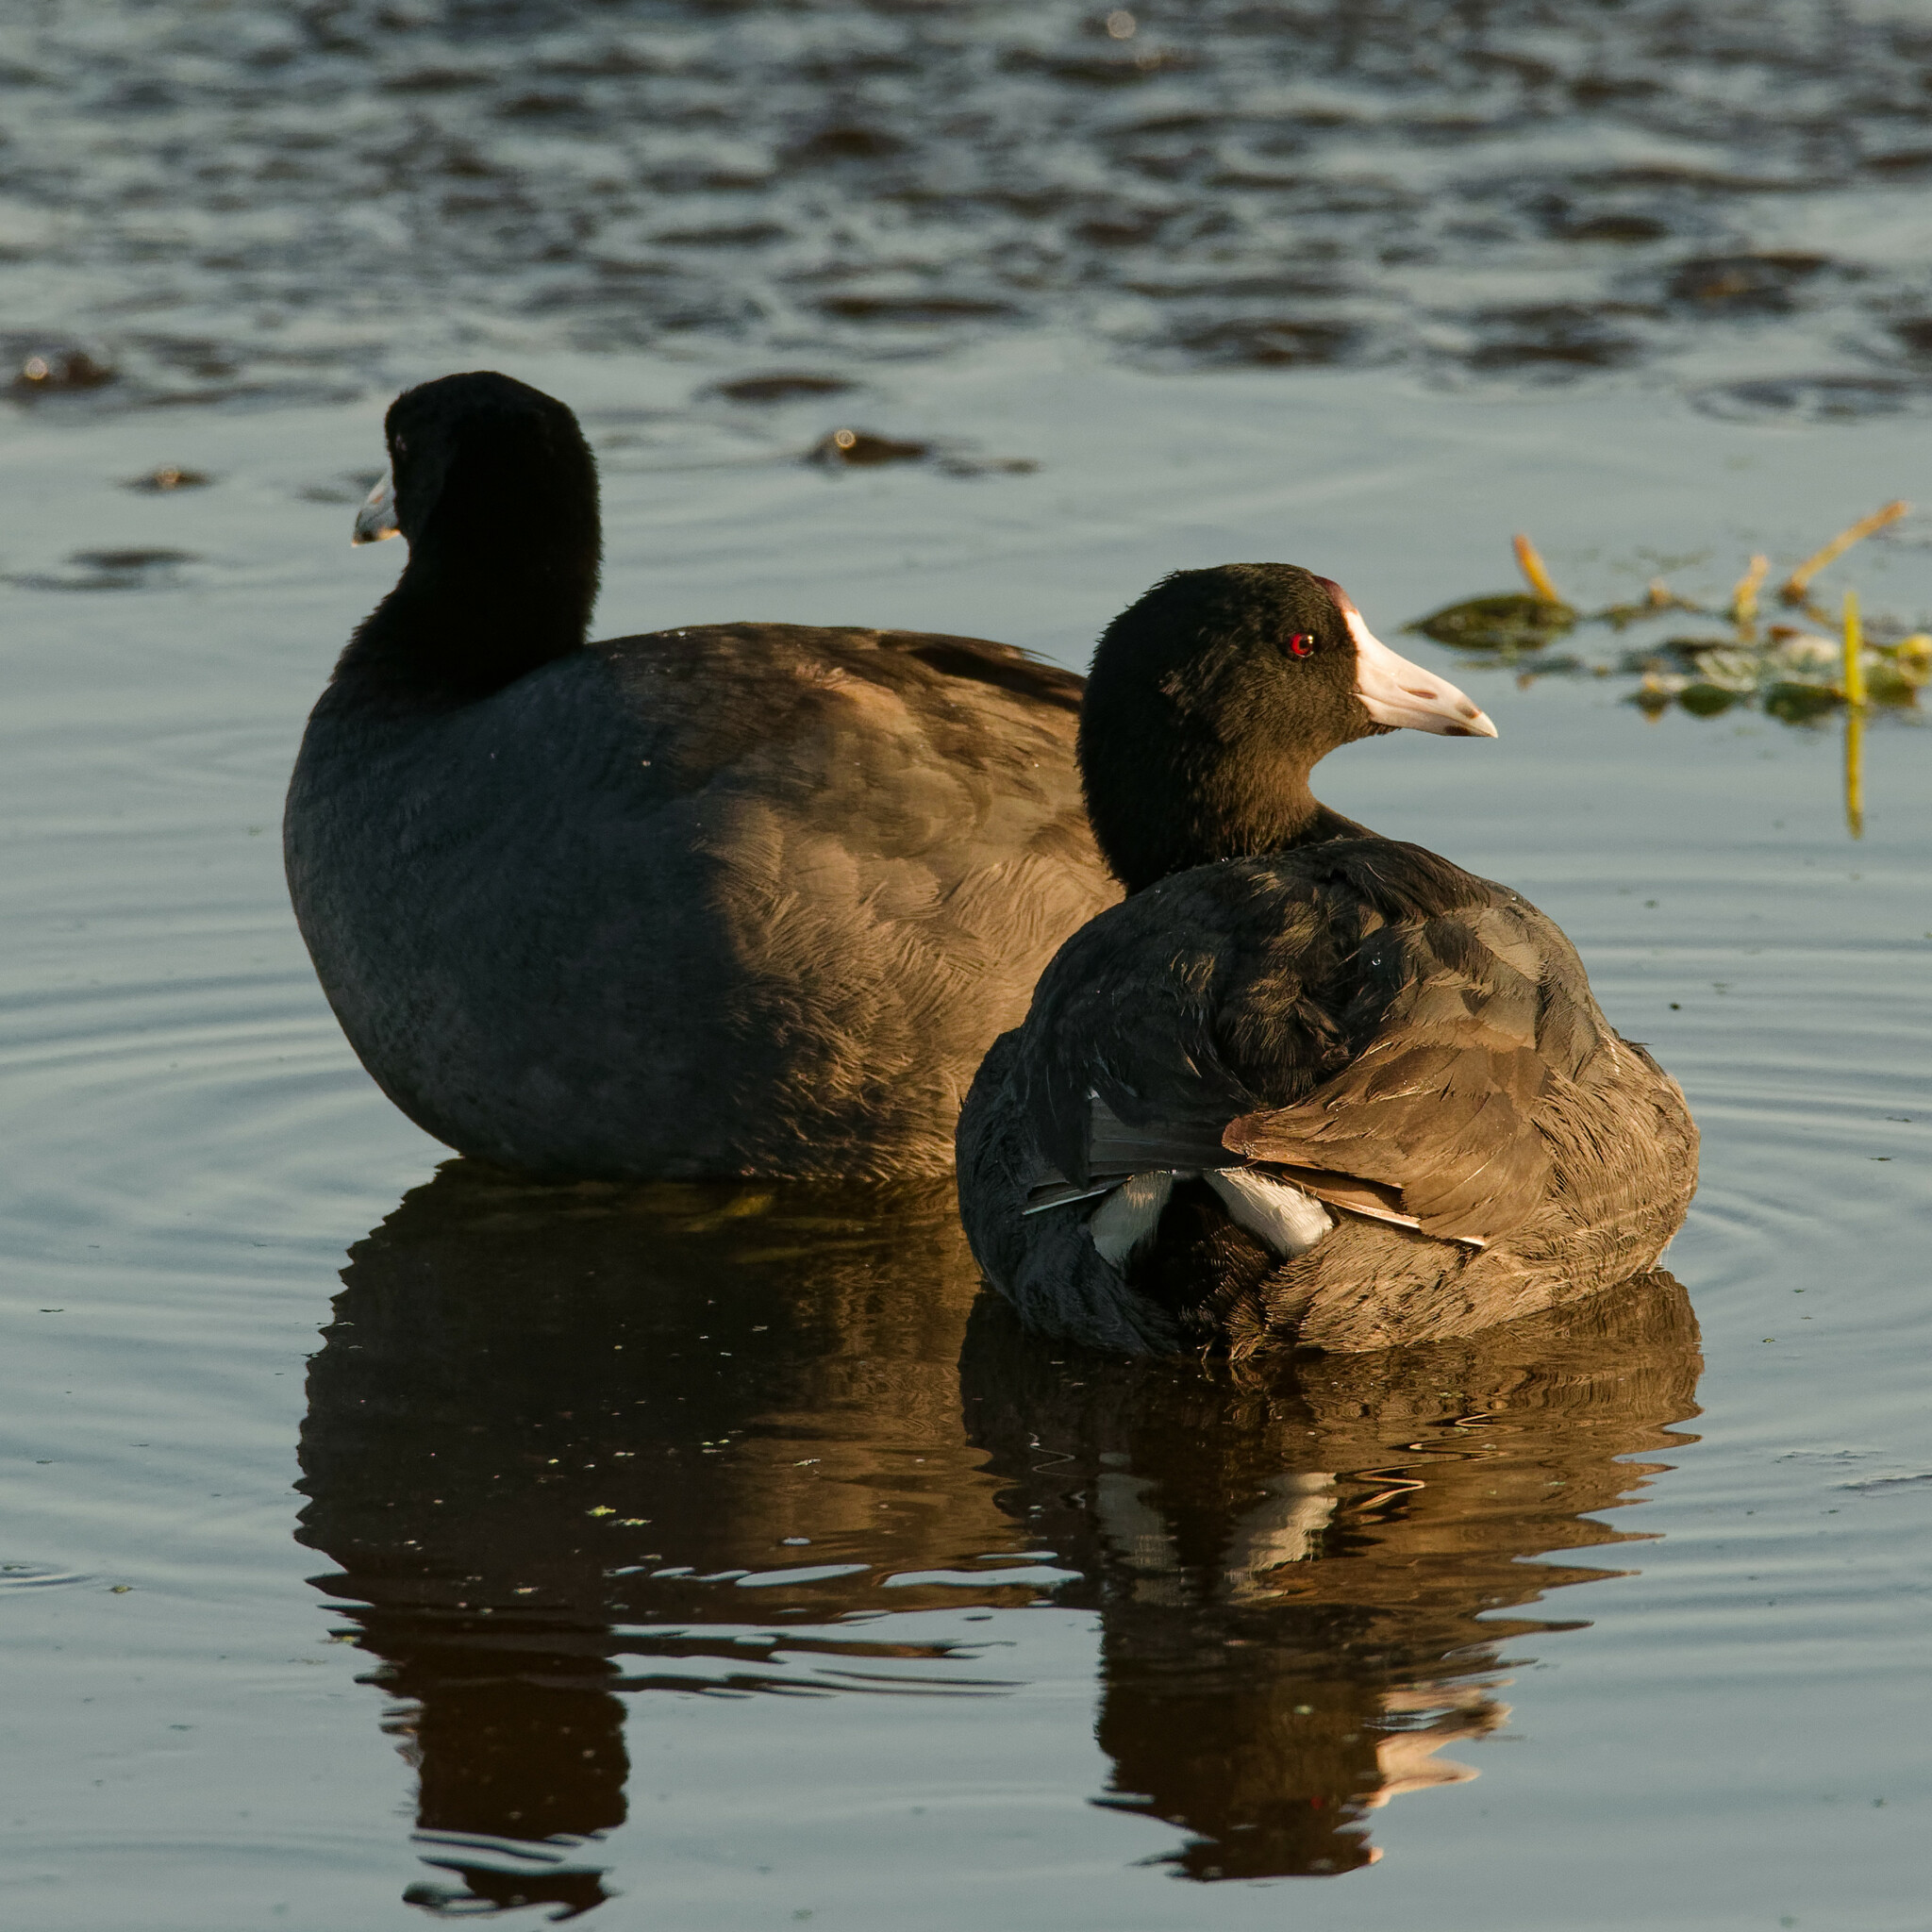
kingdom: Animalia
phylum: Chordata
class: Aves
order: Gruiformes
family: Rallidae
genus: Fulica
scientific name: Fulica americana
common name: American coot
